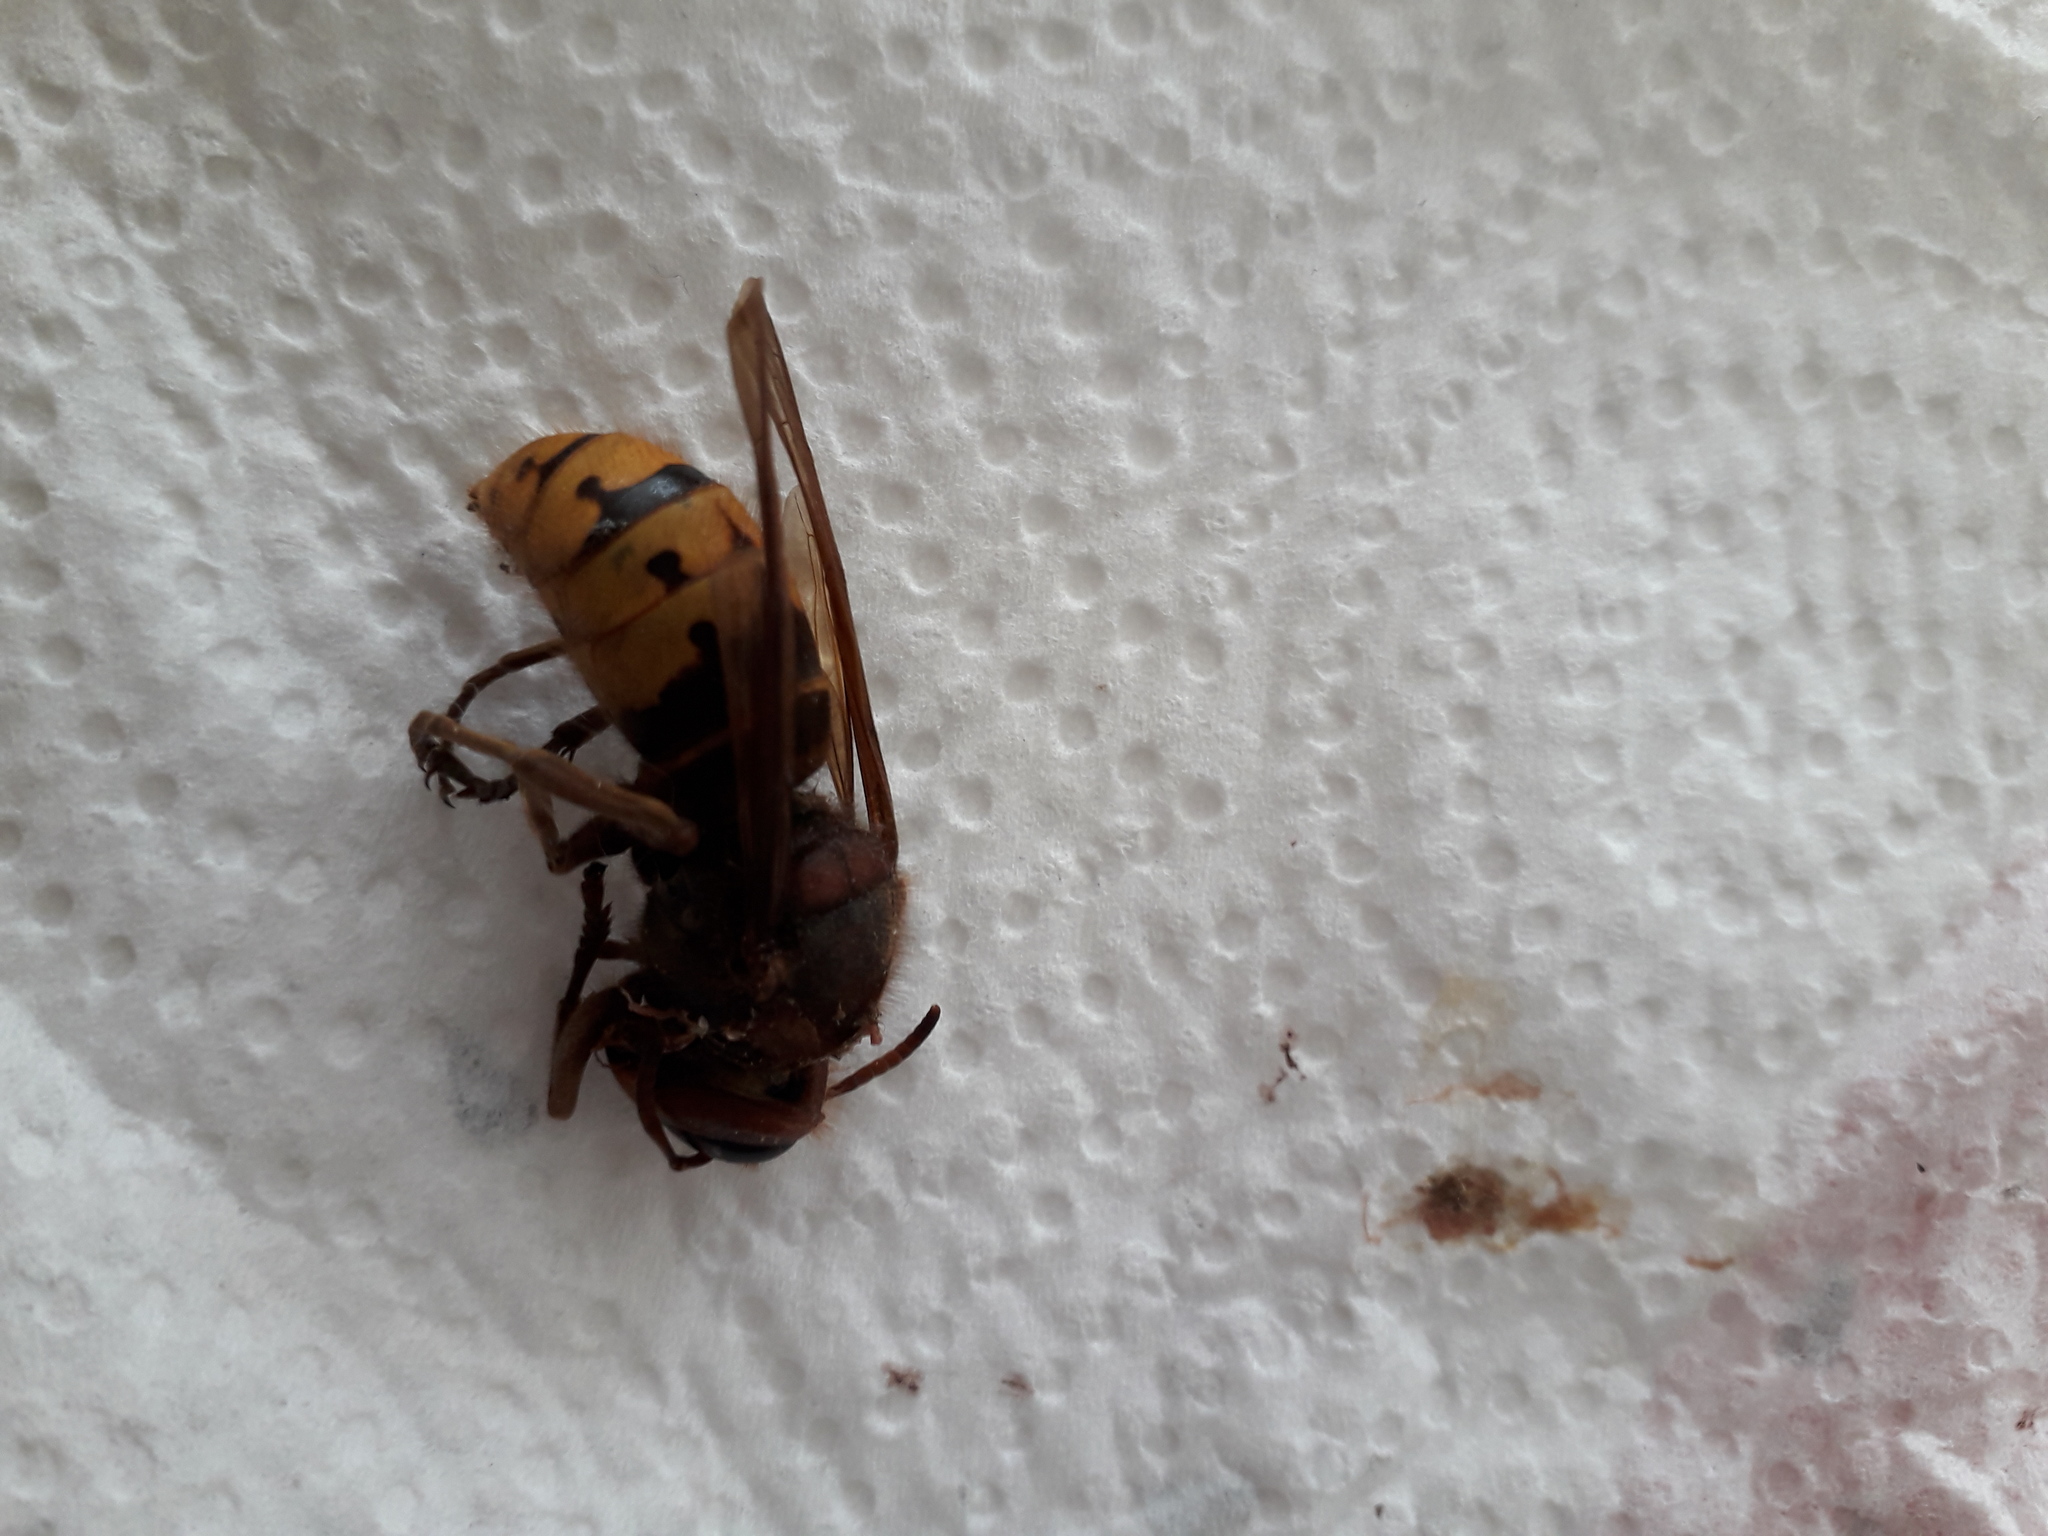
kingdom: Animalia
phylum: Arthropoda
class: Insecta
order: Hymenoptera
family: Vespidae
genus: Vespa
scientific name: Vespa crabro
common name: Hornet
